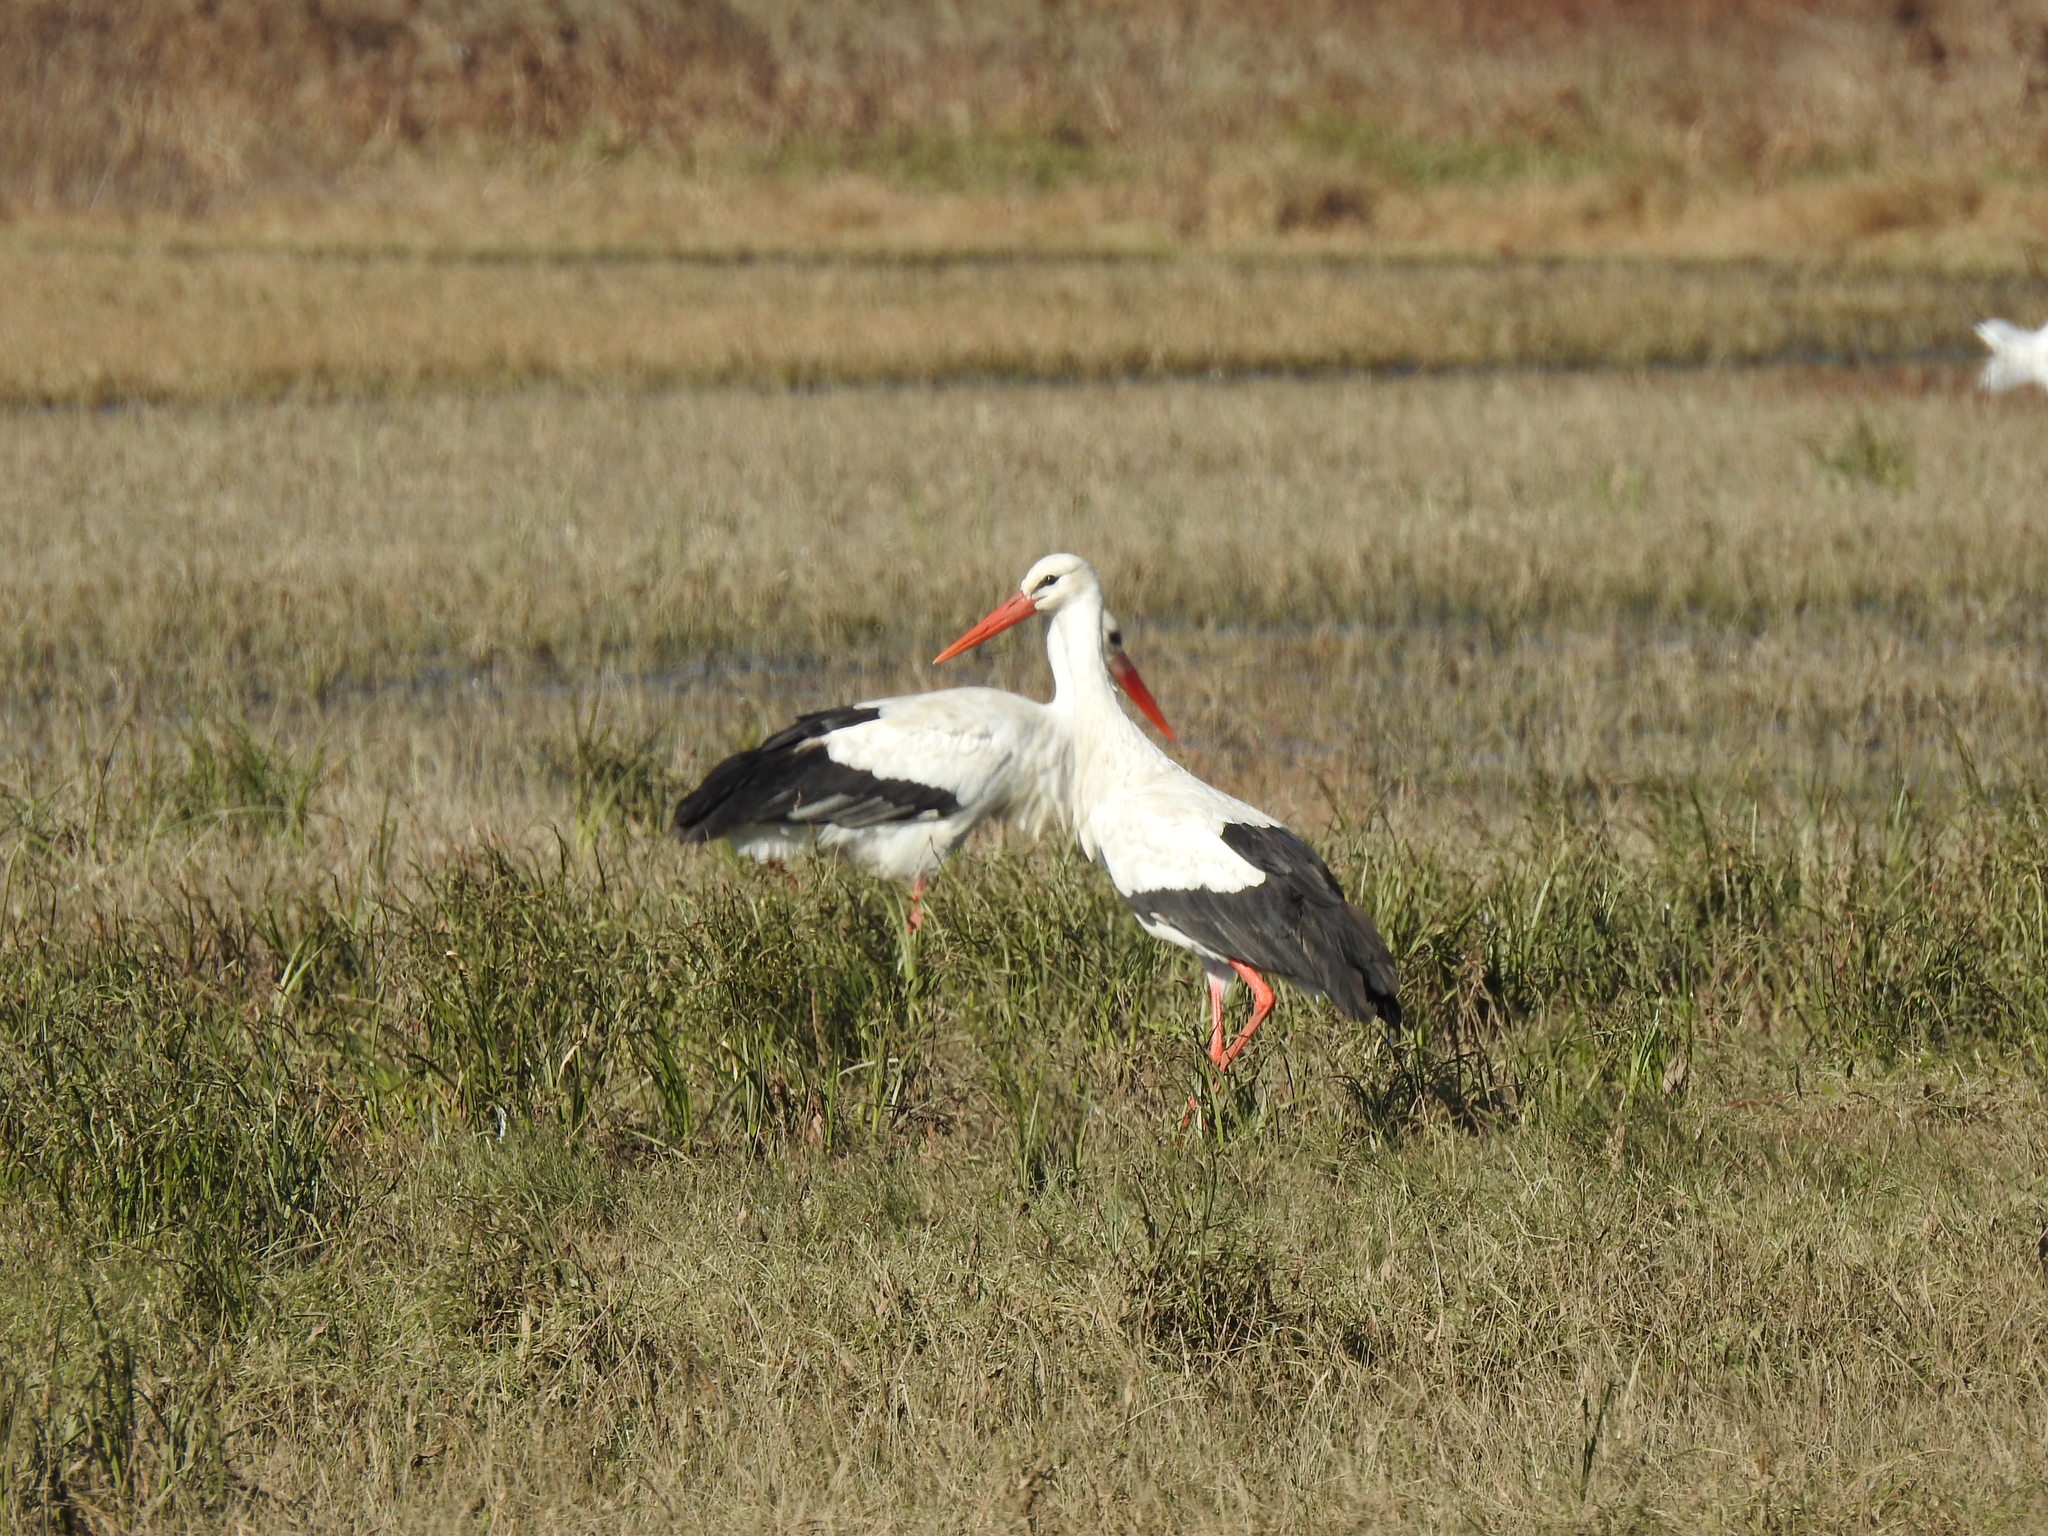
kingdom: Animalia
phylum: Chordata
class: Aves
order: Ciconiiformes
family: Ciconiidae
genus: Ciconia
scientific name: Ciconia ciconia
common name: White stork
